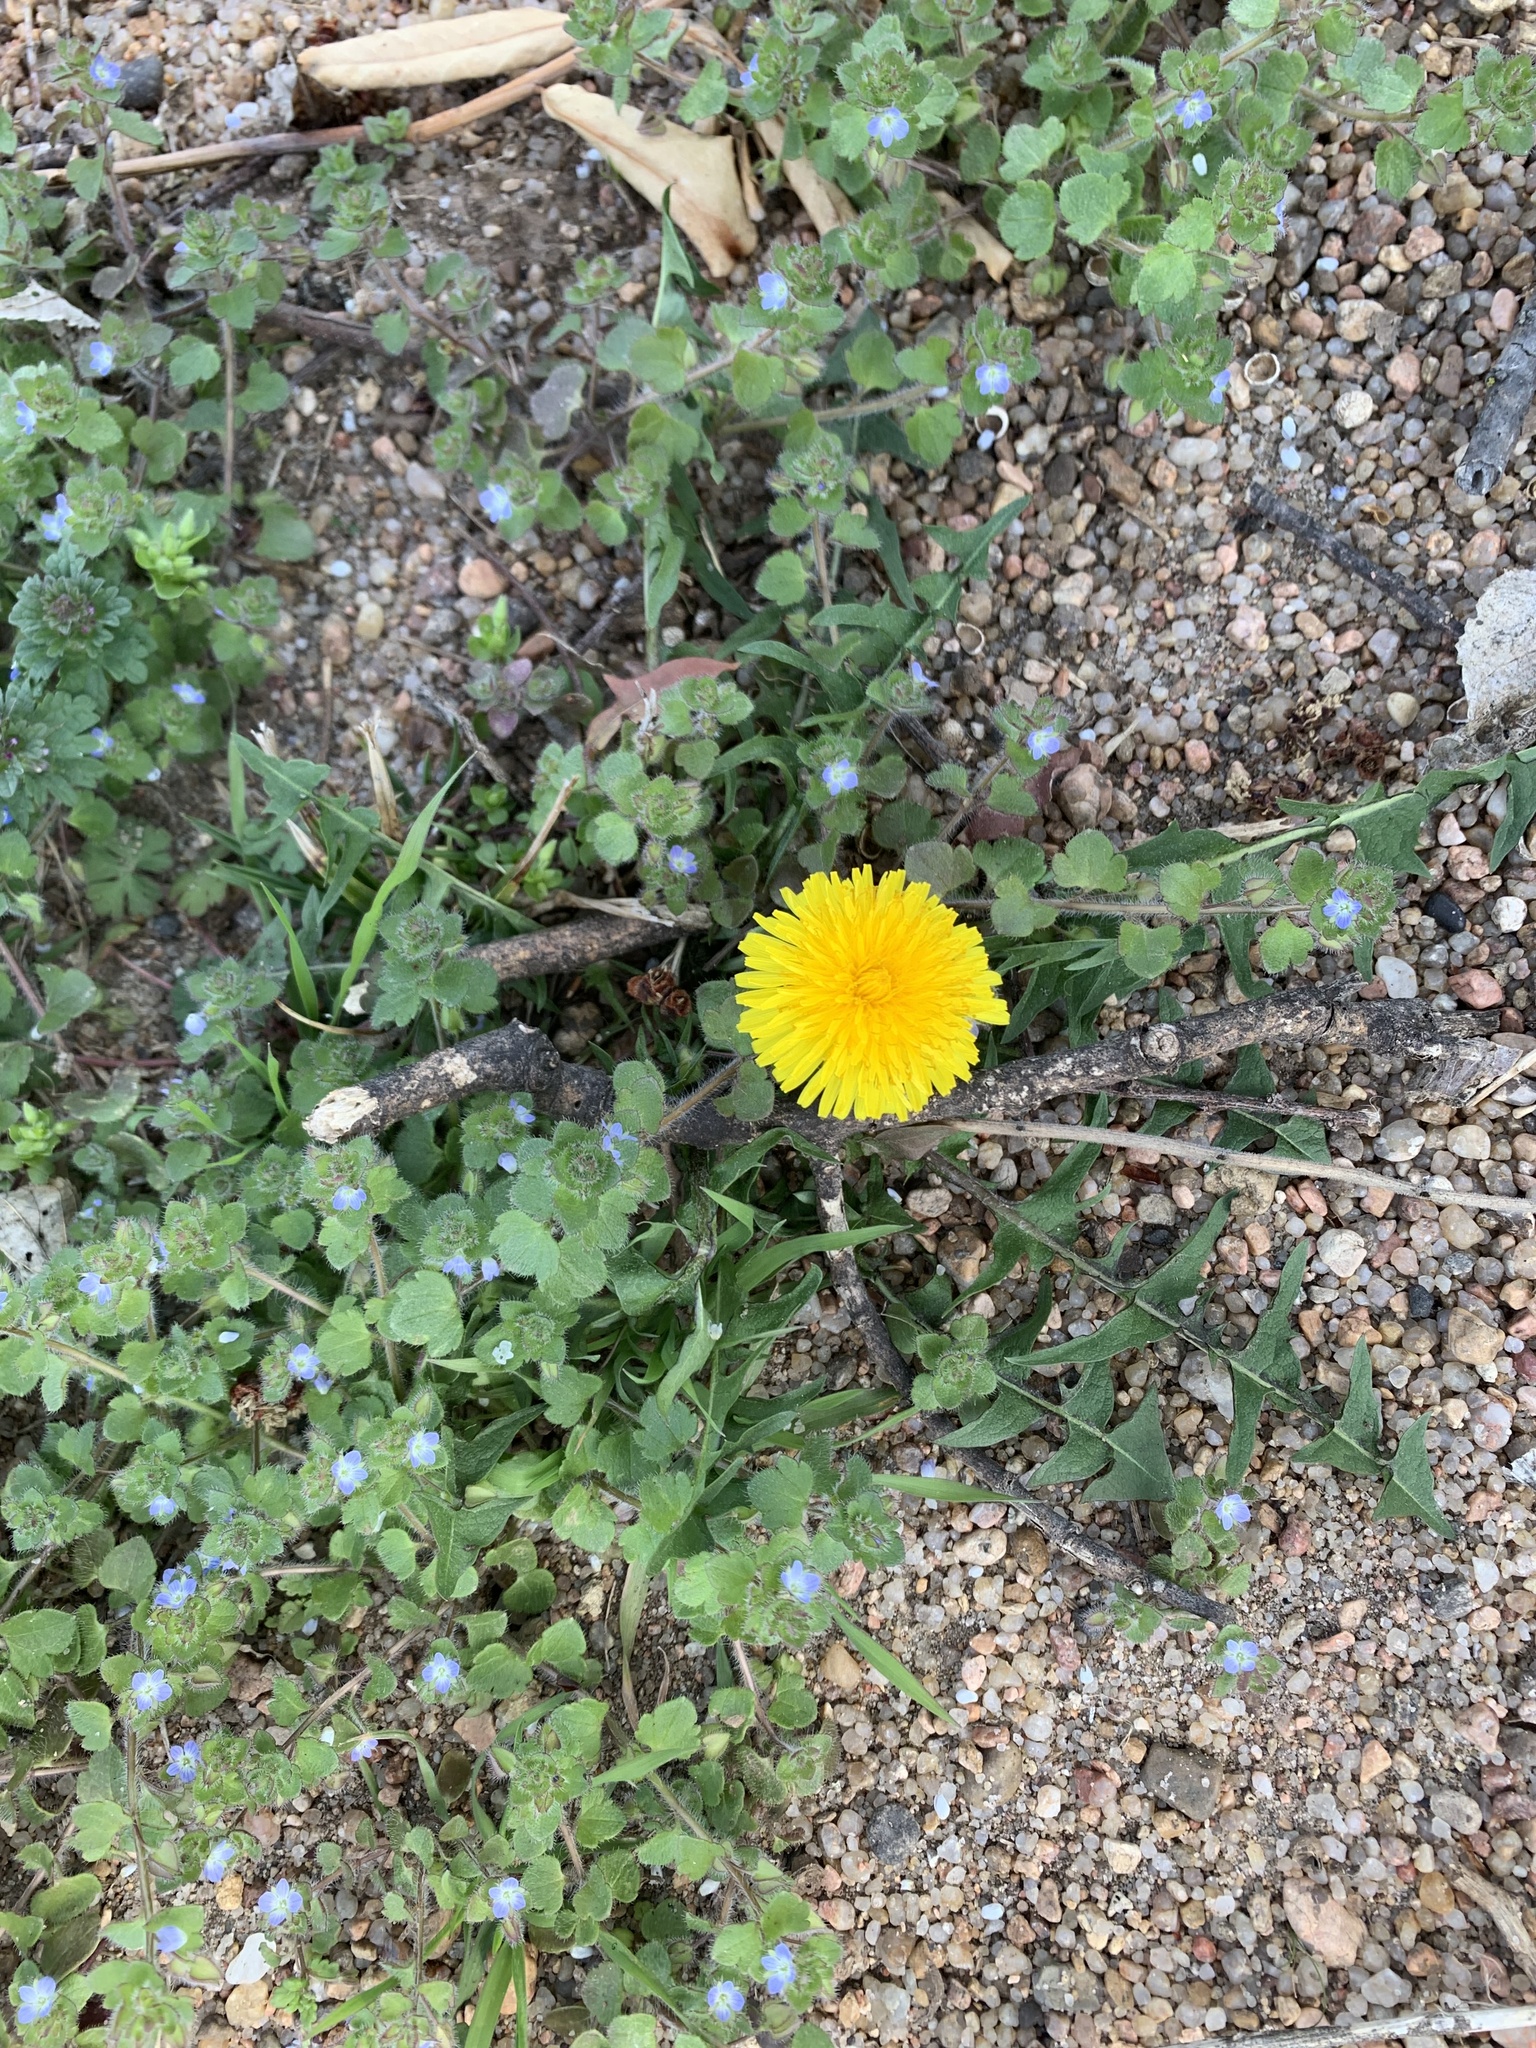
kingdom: Plantae
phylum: Tracheophyta
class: Magnoliopsida
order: Asterales
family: Asteraceae
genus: Taraxacum
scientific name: Taraxacum
